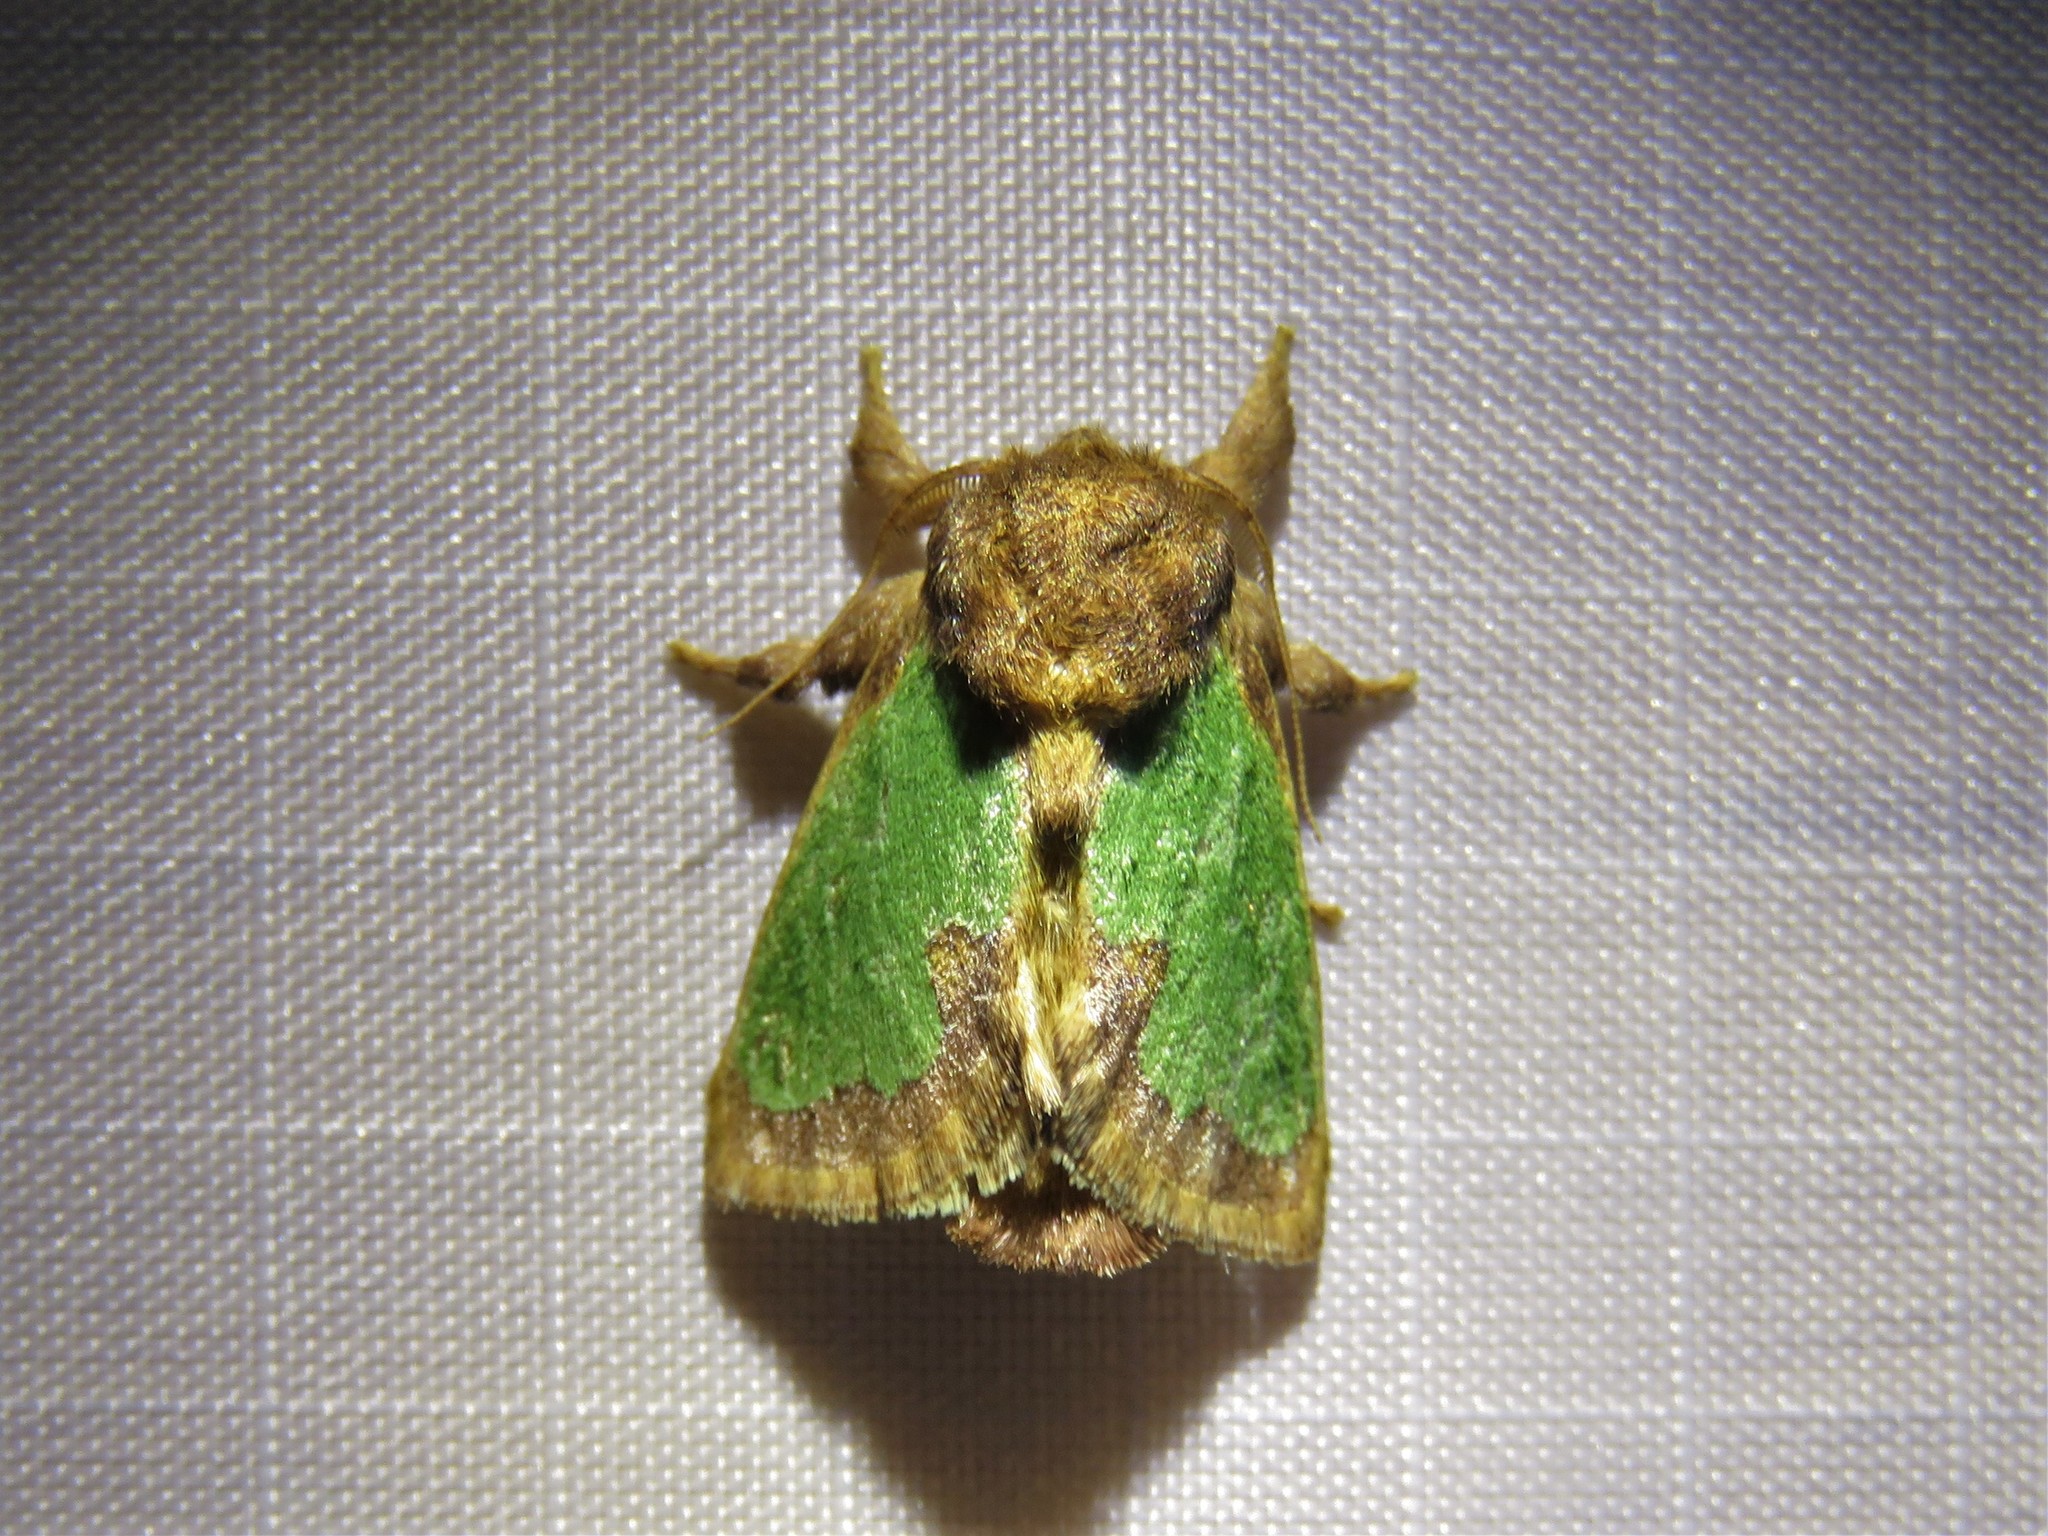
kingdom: Animalia
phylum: Arthropoda
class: Insecta
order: Lepidoptera
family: Limacodidae
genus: Euclea
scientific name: Euclea incisa
